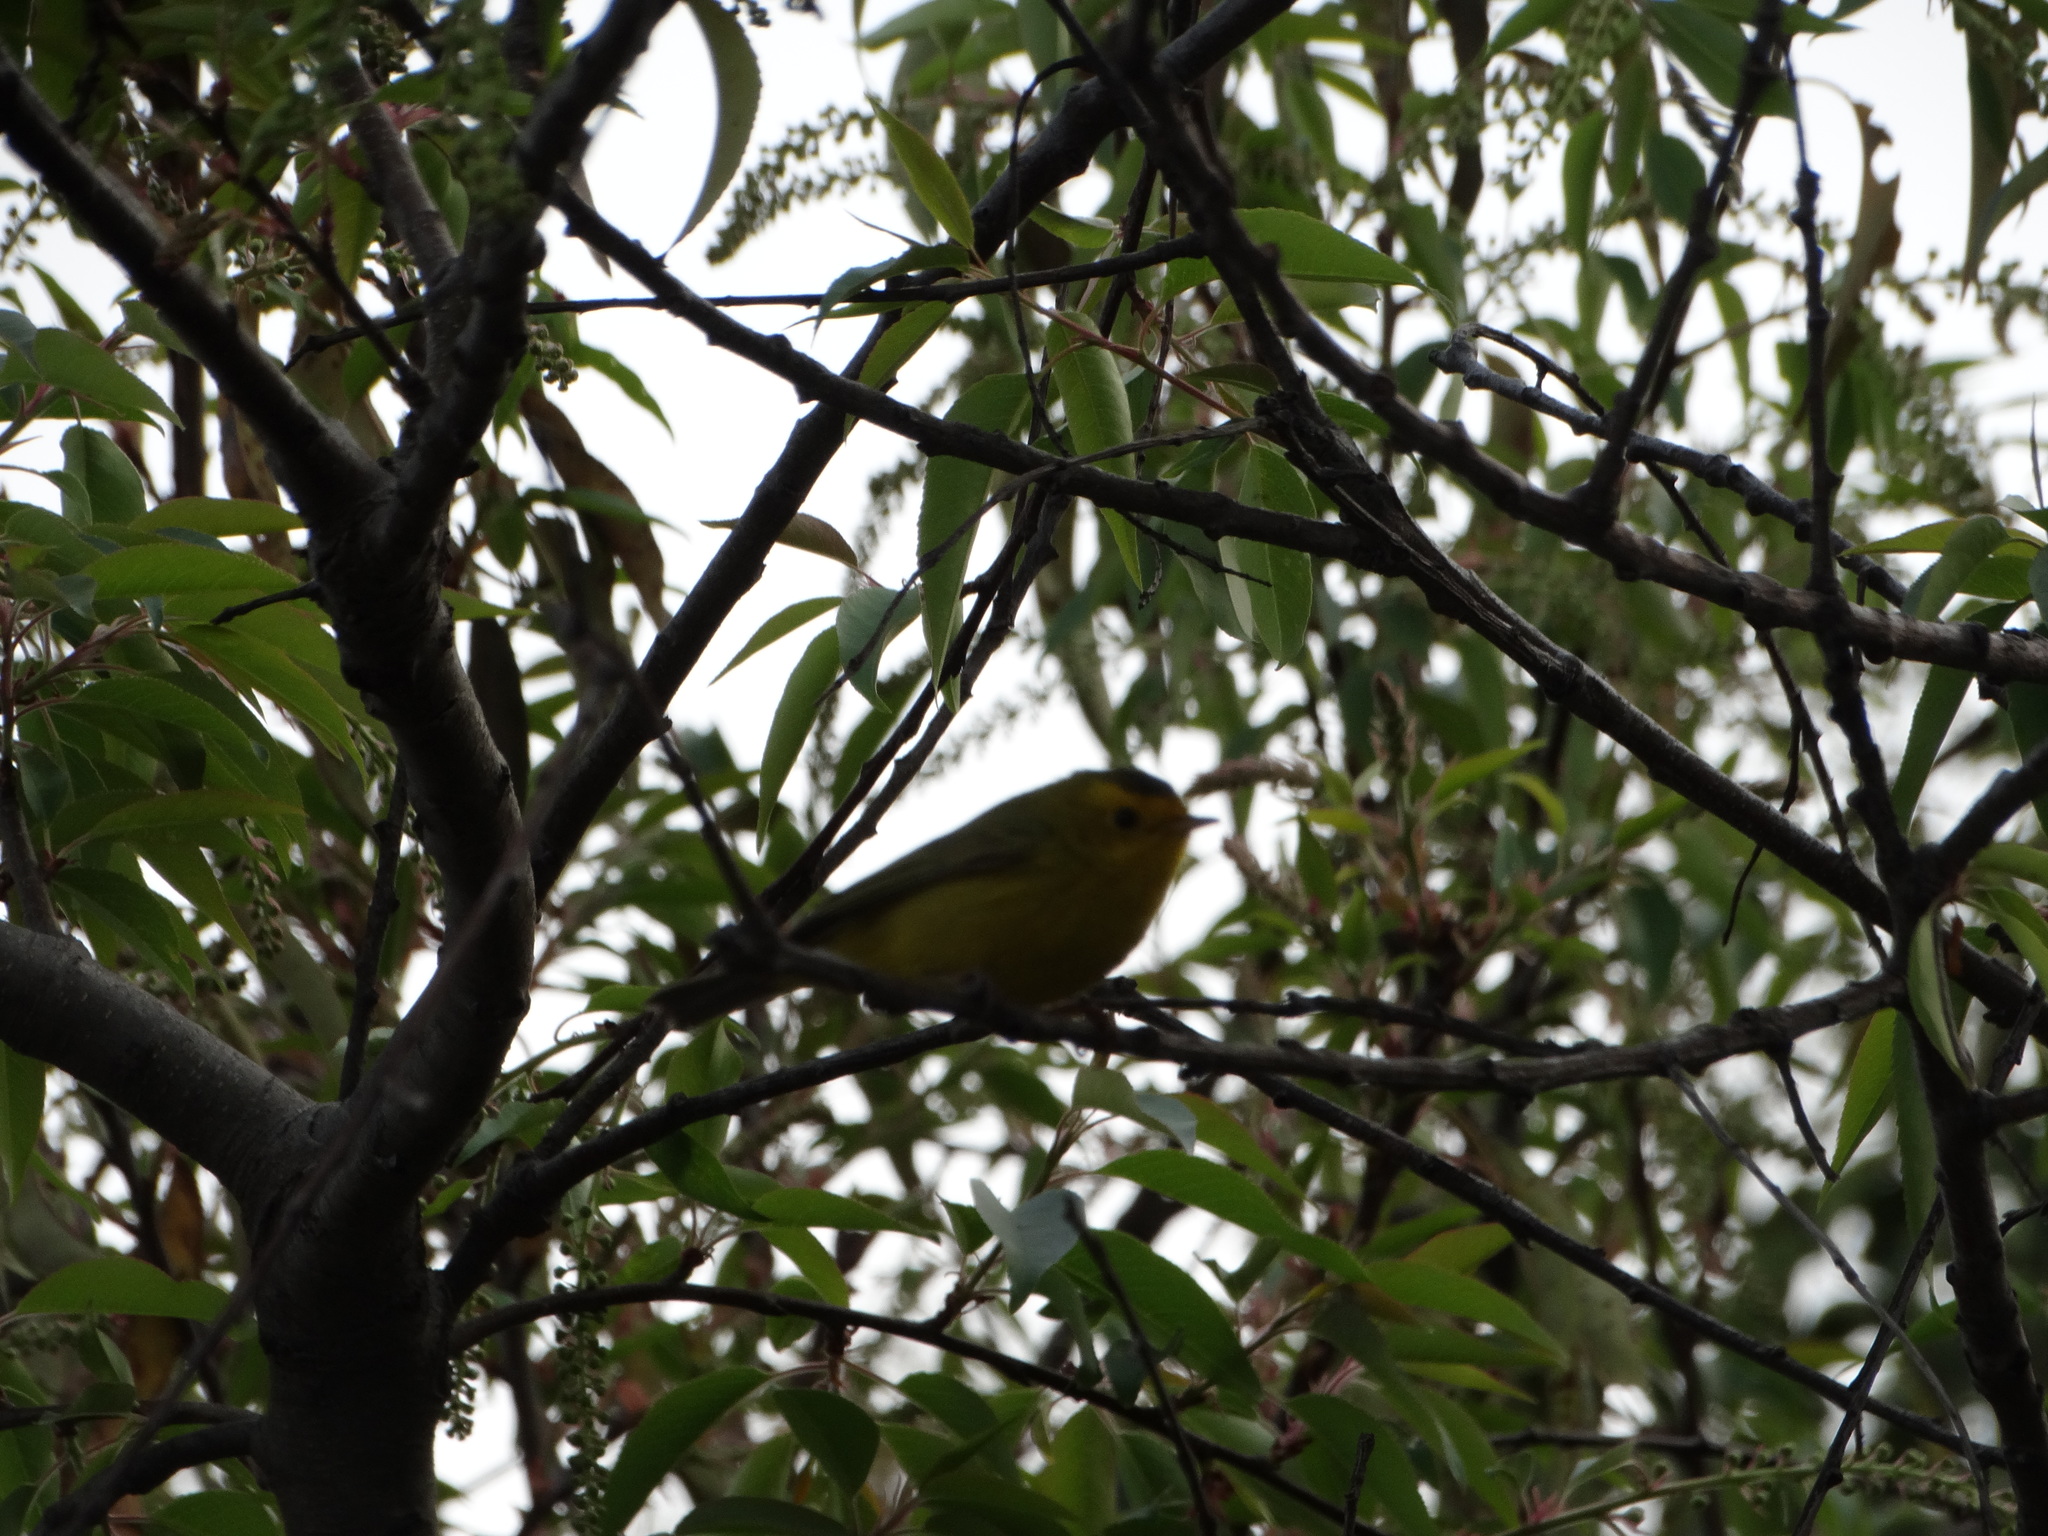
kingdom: Animalia
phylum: Chordata
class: Aves
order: Passeriformes
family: Parulidae
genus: Cardellina
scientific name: Cardellina pusilla
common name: Wilson's warbler
